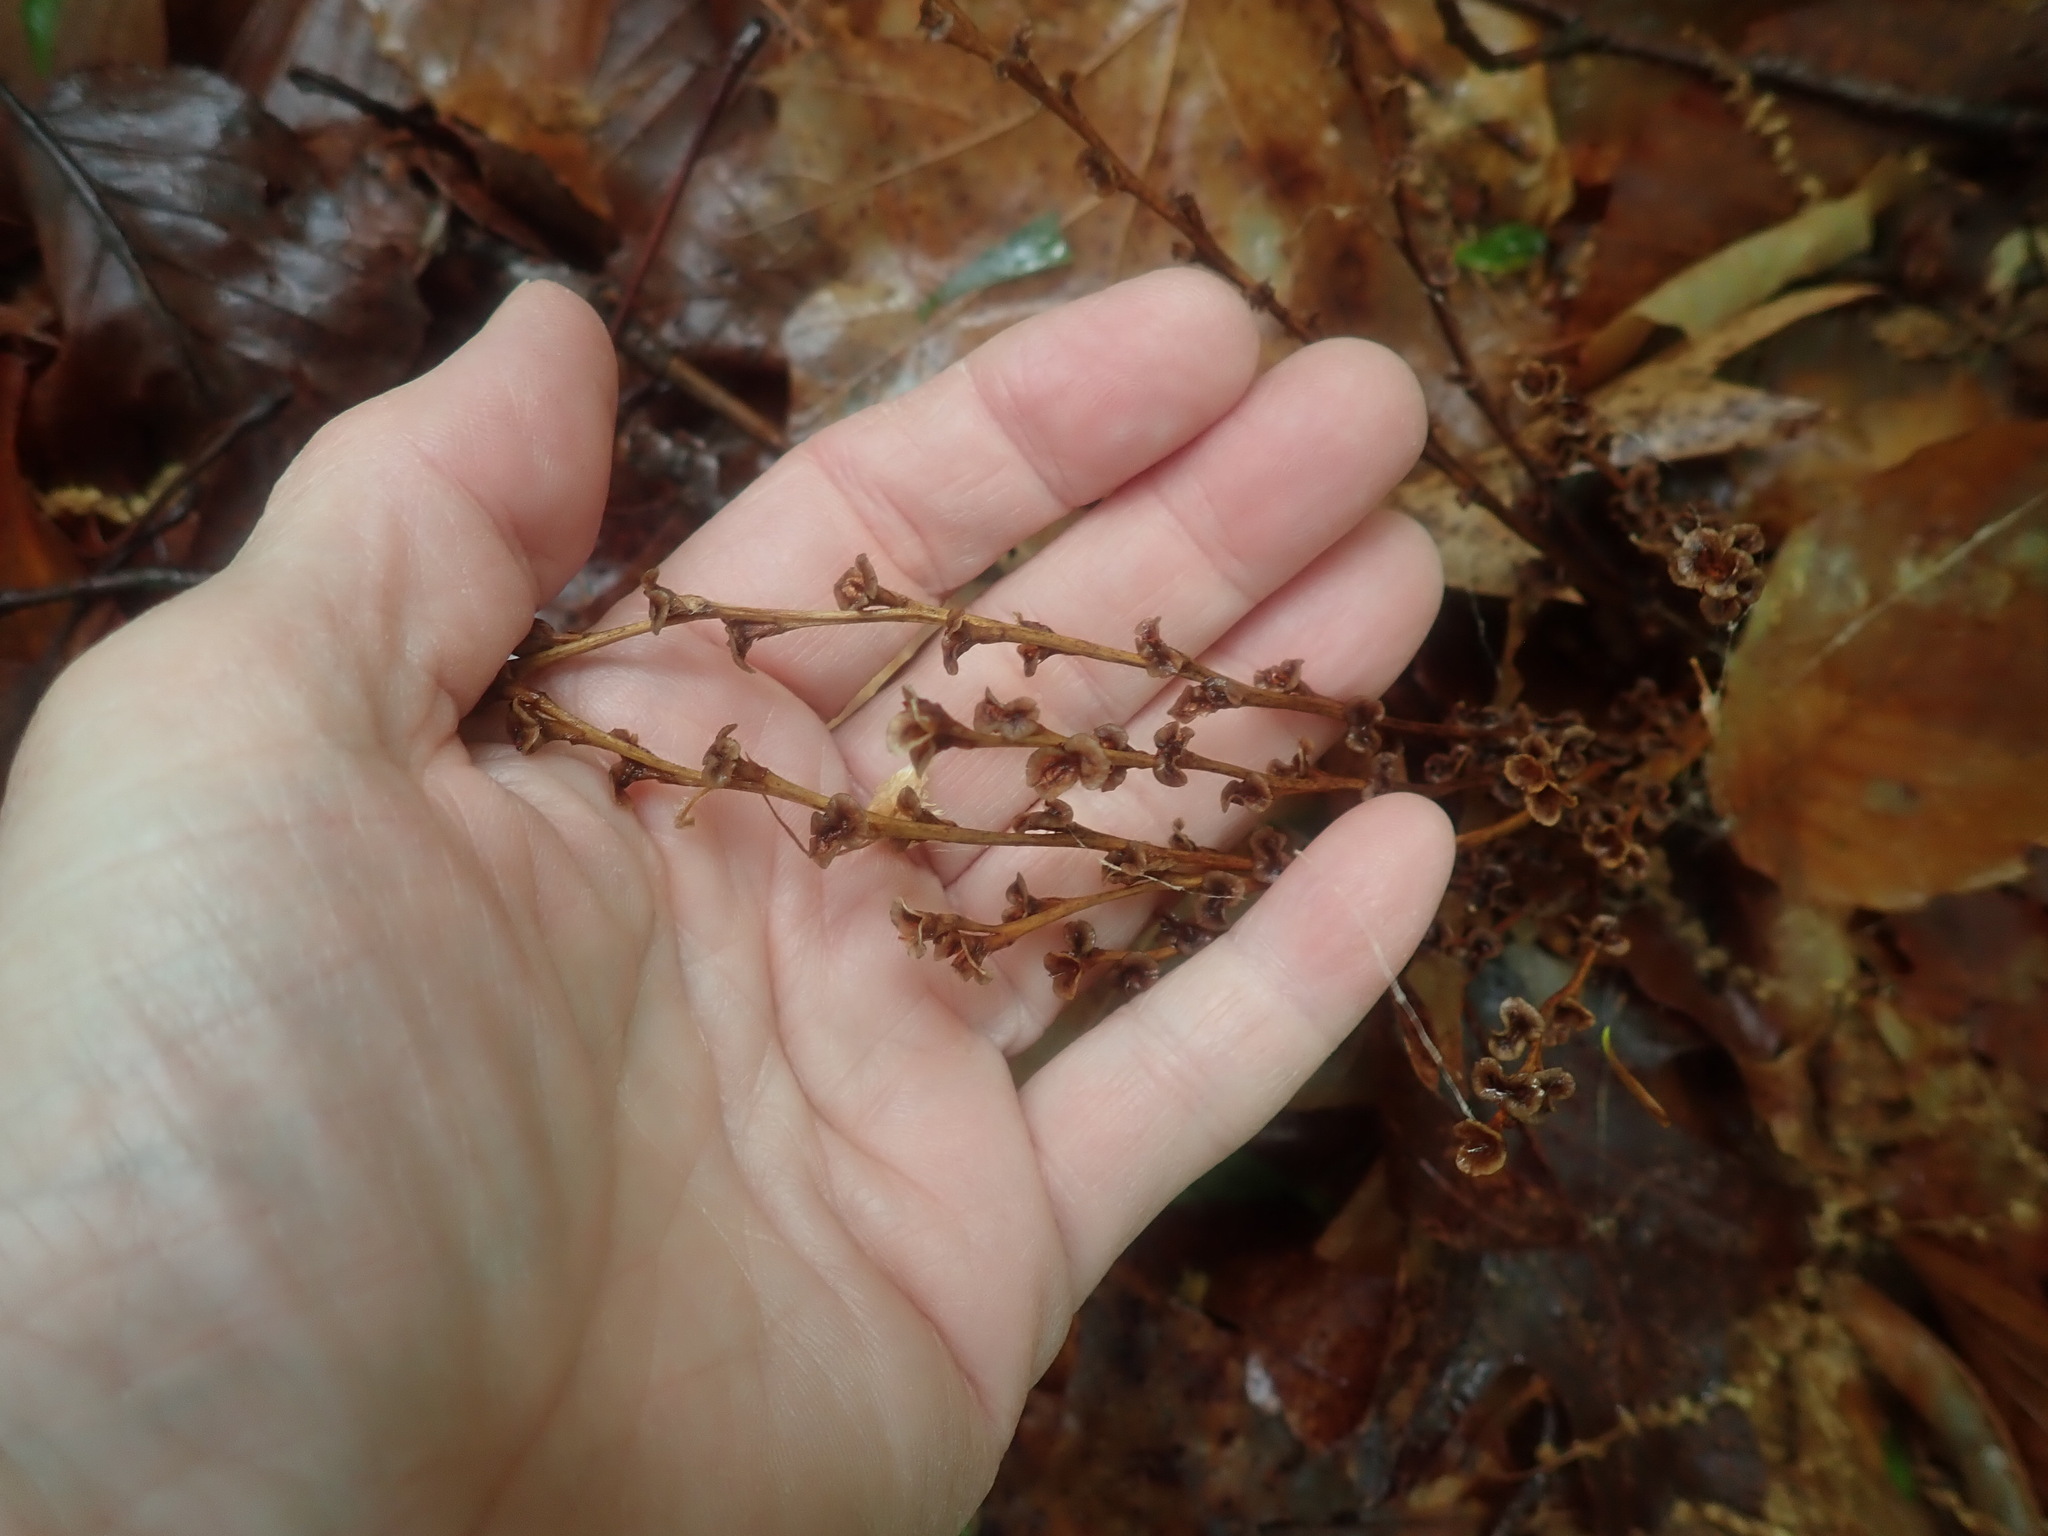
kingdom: Plantae
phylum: Tracheophyta
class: Magnoliopsida
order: Lamiales
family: Orobanchaceae
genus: Epifagus
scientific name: Epifagus virginiana
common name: Beechdrops
